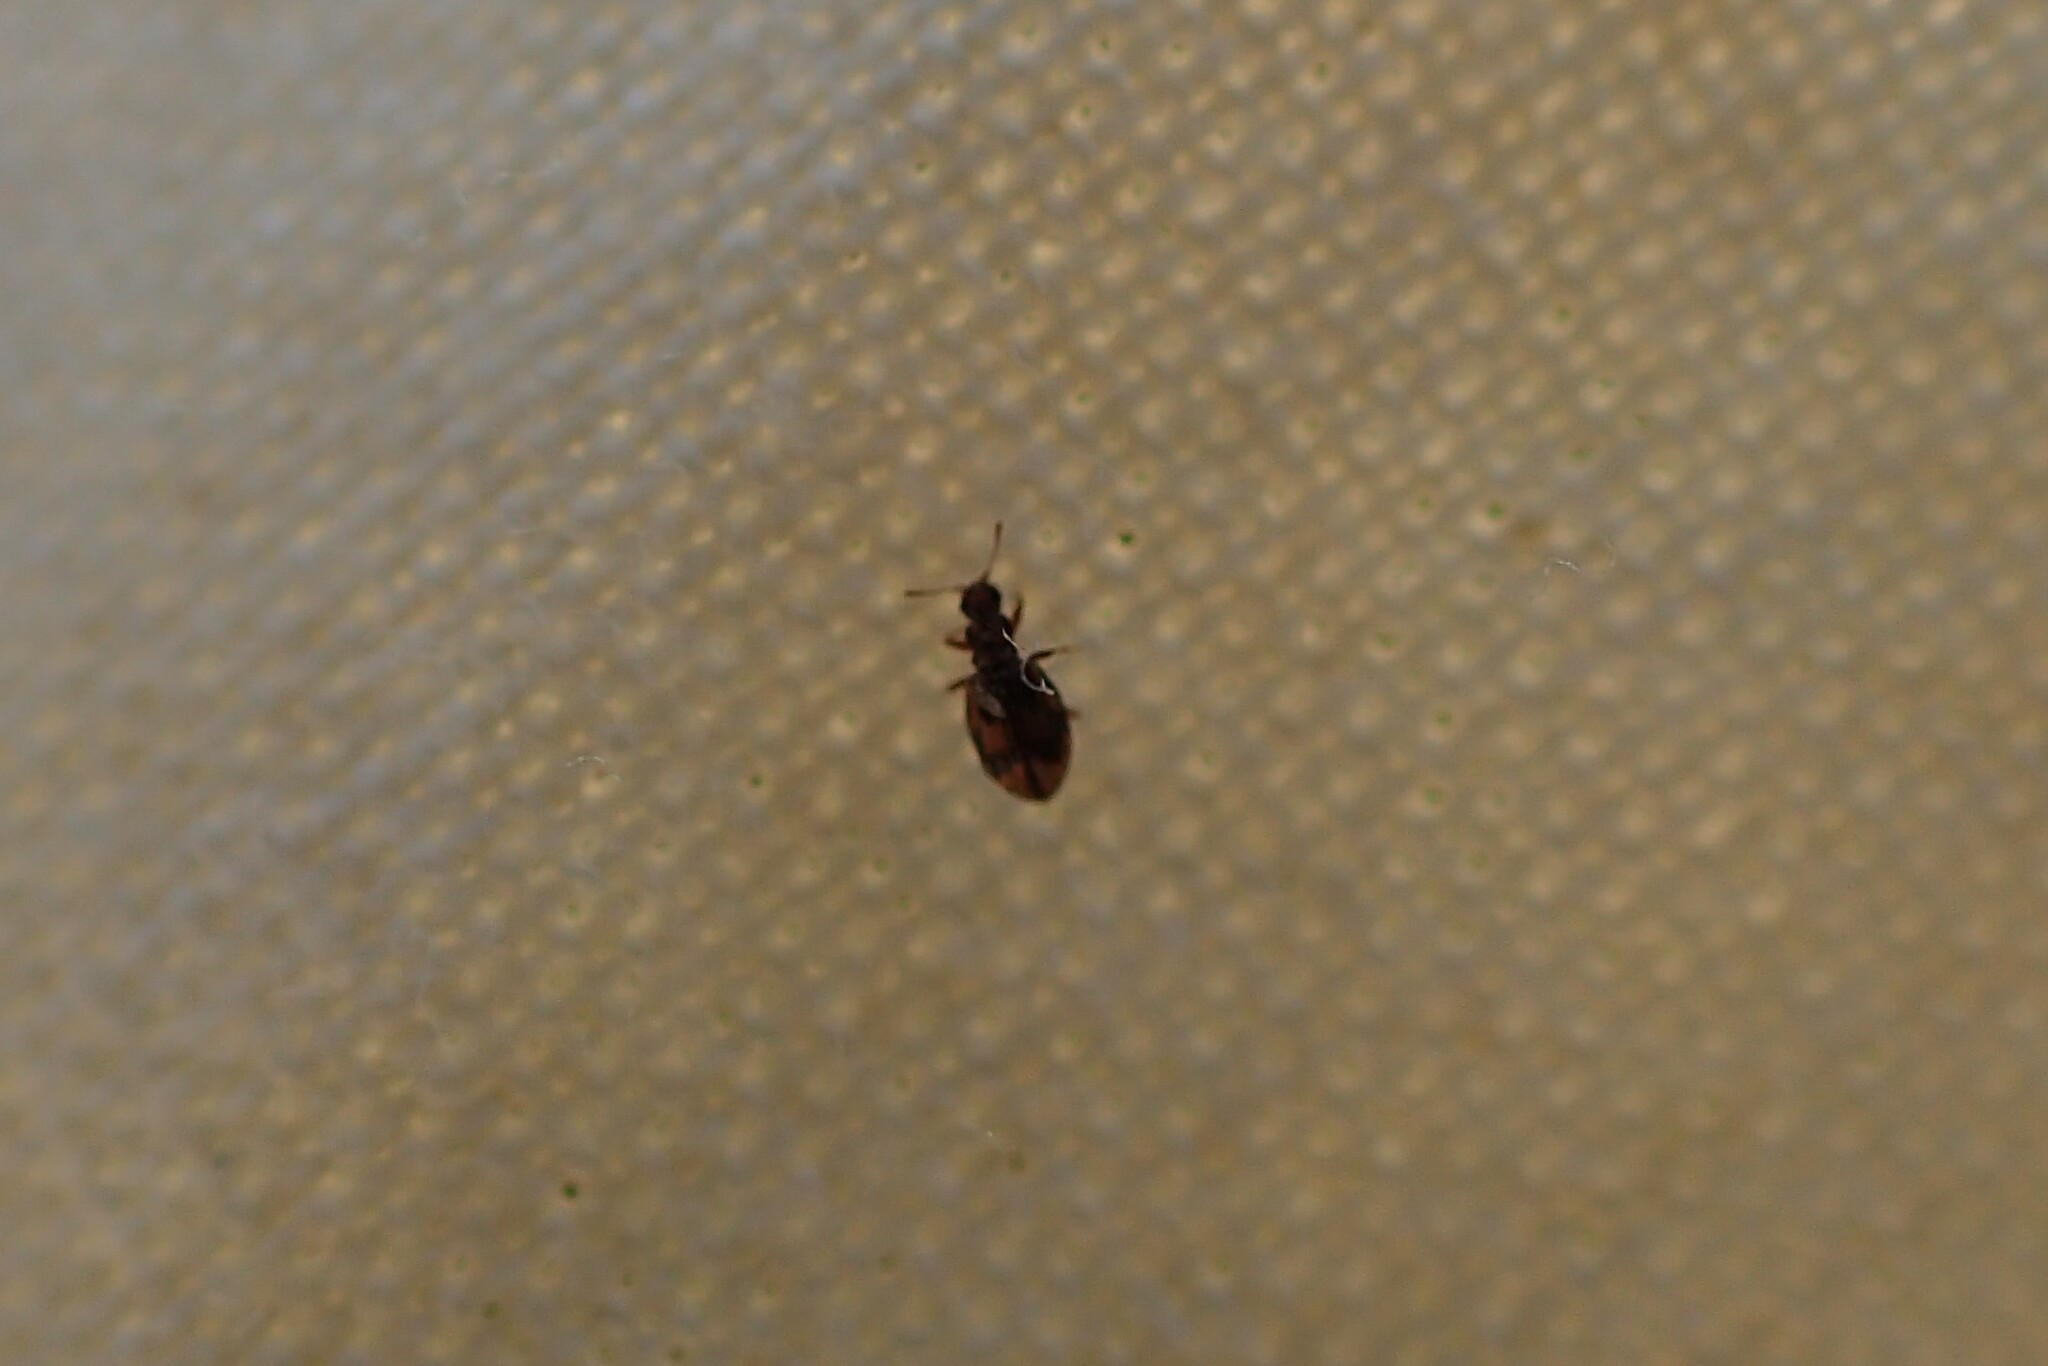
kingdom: Animalia
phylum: Arthropoda
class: Insecta
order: Coleoptera
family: Latridiidae
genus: Cartodere
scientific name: Cartodere bifasciata
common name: Plaster beetle
